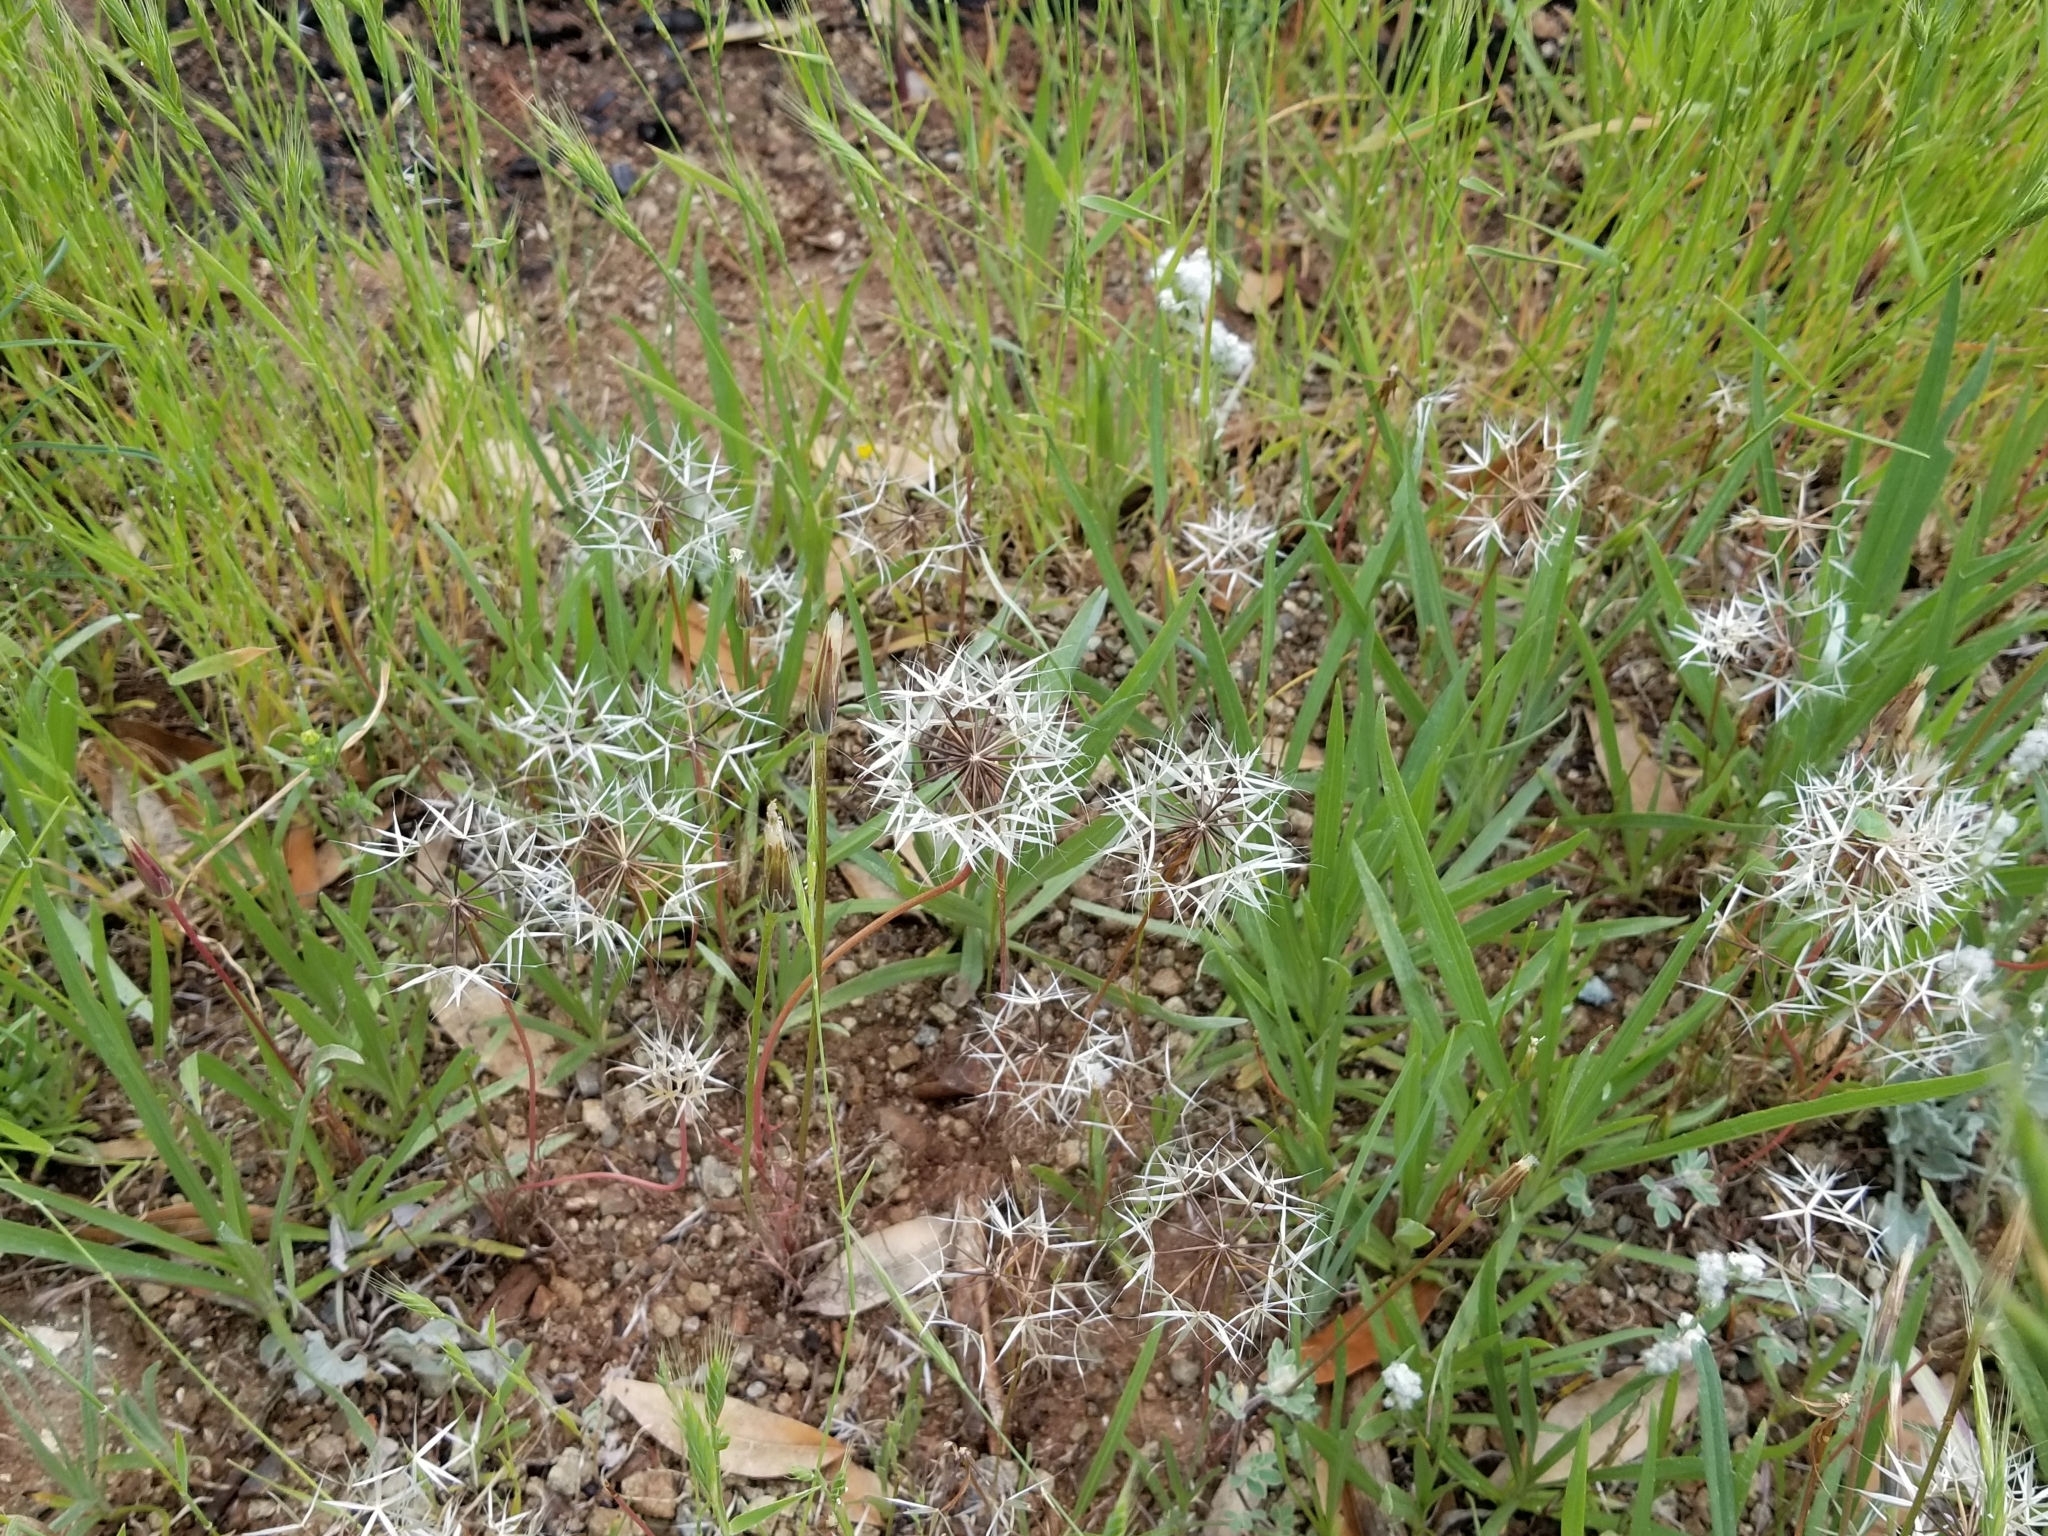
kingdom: Plantae
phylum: Tracheophyta
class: Magnoliopsida
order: Asterales
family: Asteraceae
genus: Microseris
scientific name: Microseris lindleyi
